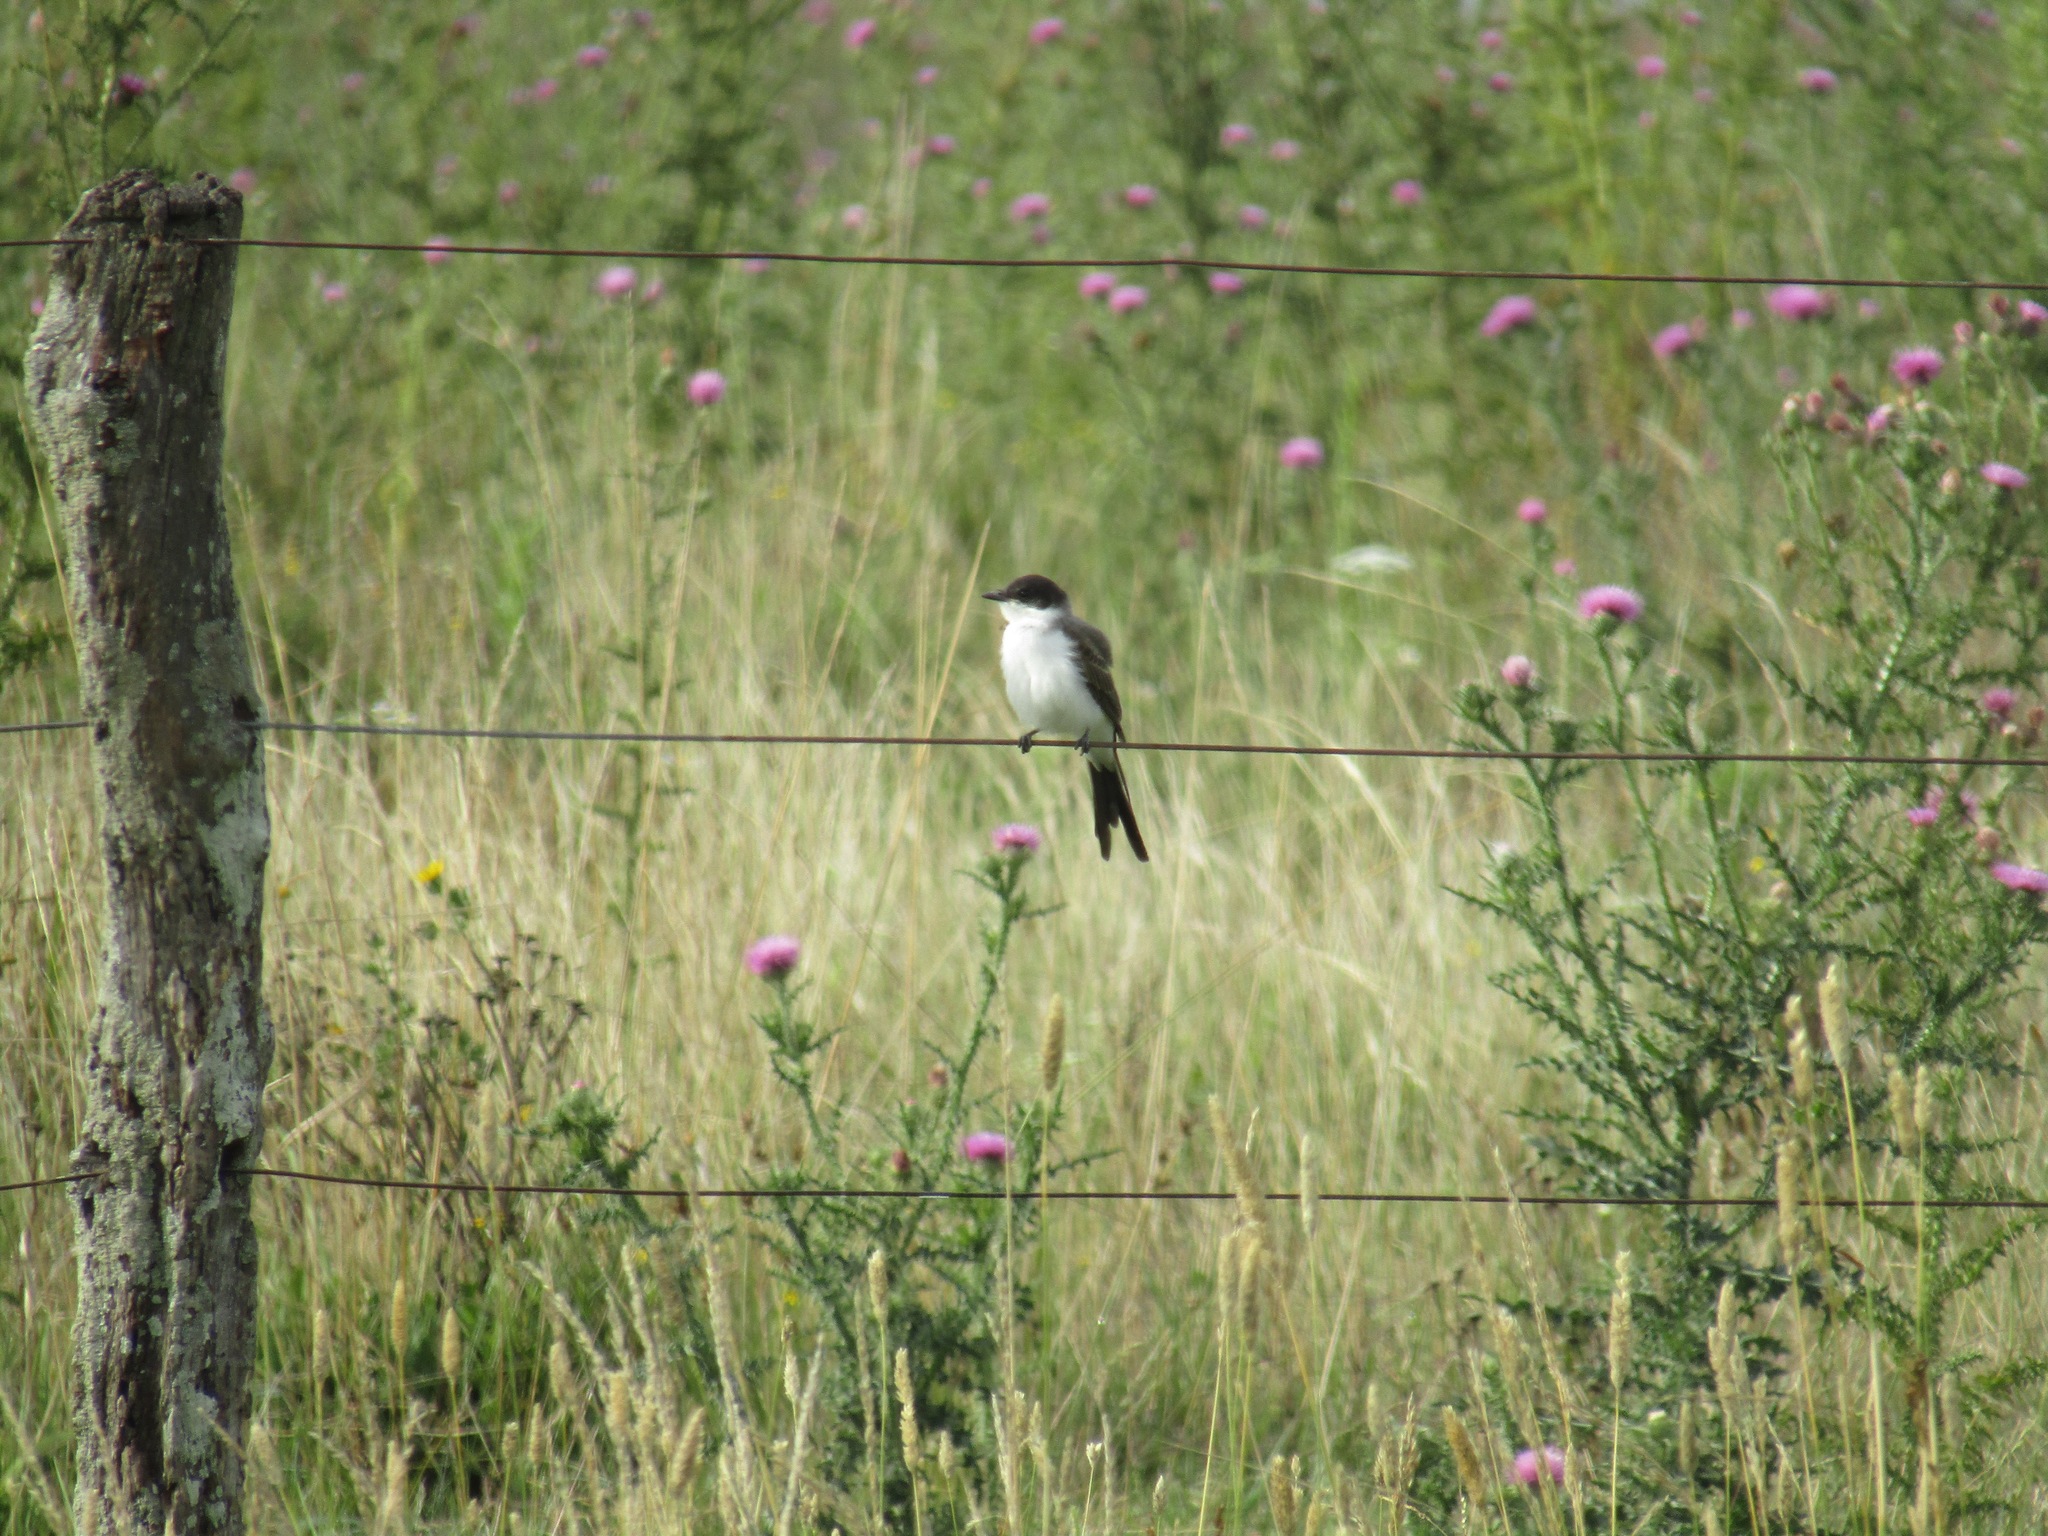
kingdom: Animalia
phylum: Chordata
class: Aves
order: Passeriformes
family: Tyrannidae
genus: Tyrannus
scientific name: Tyrannus savana
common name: Fork-tailed flycatcher
